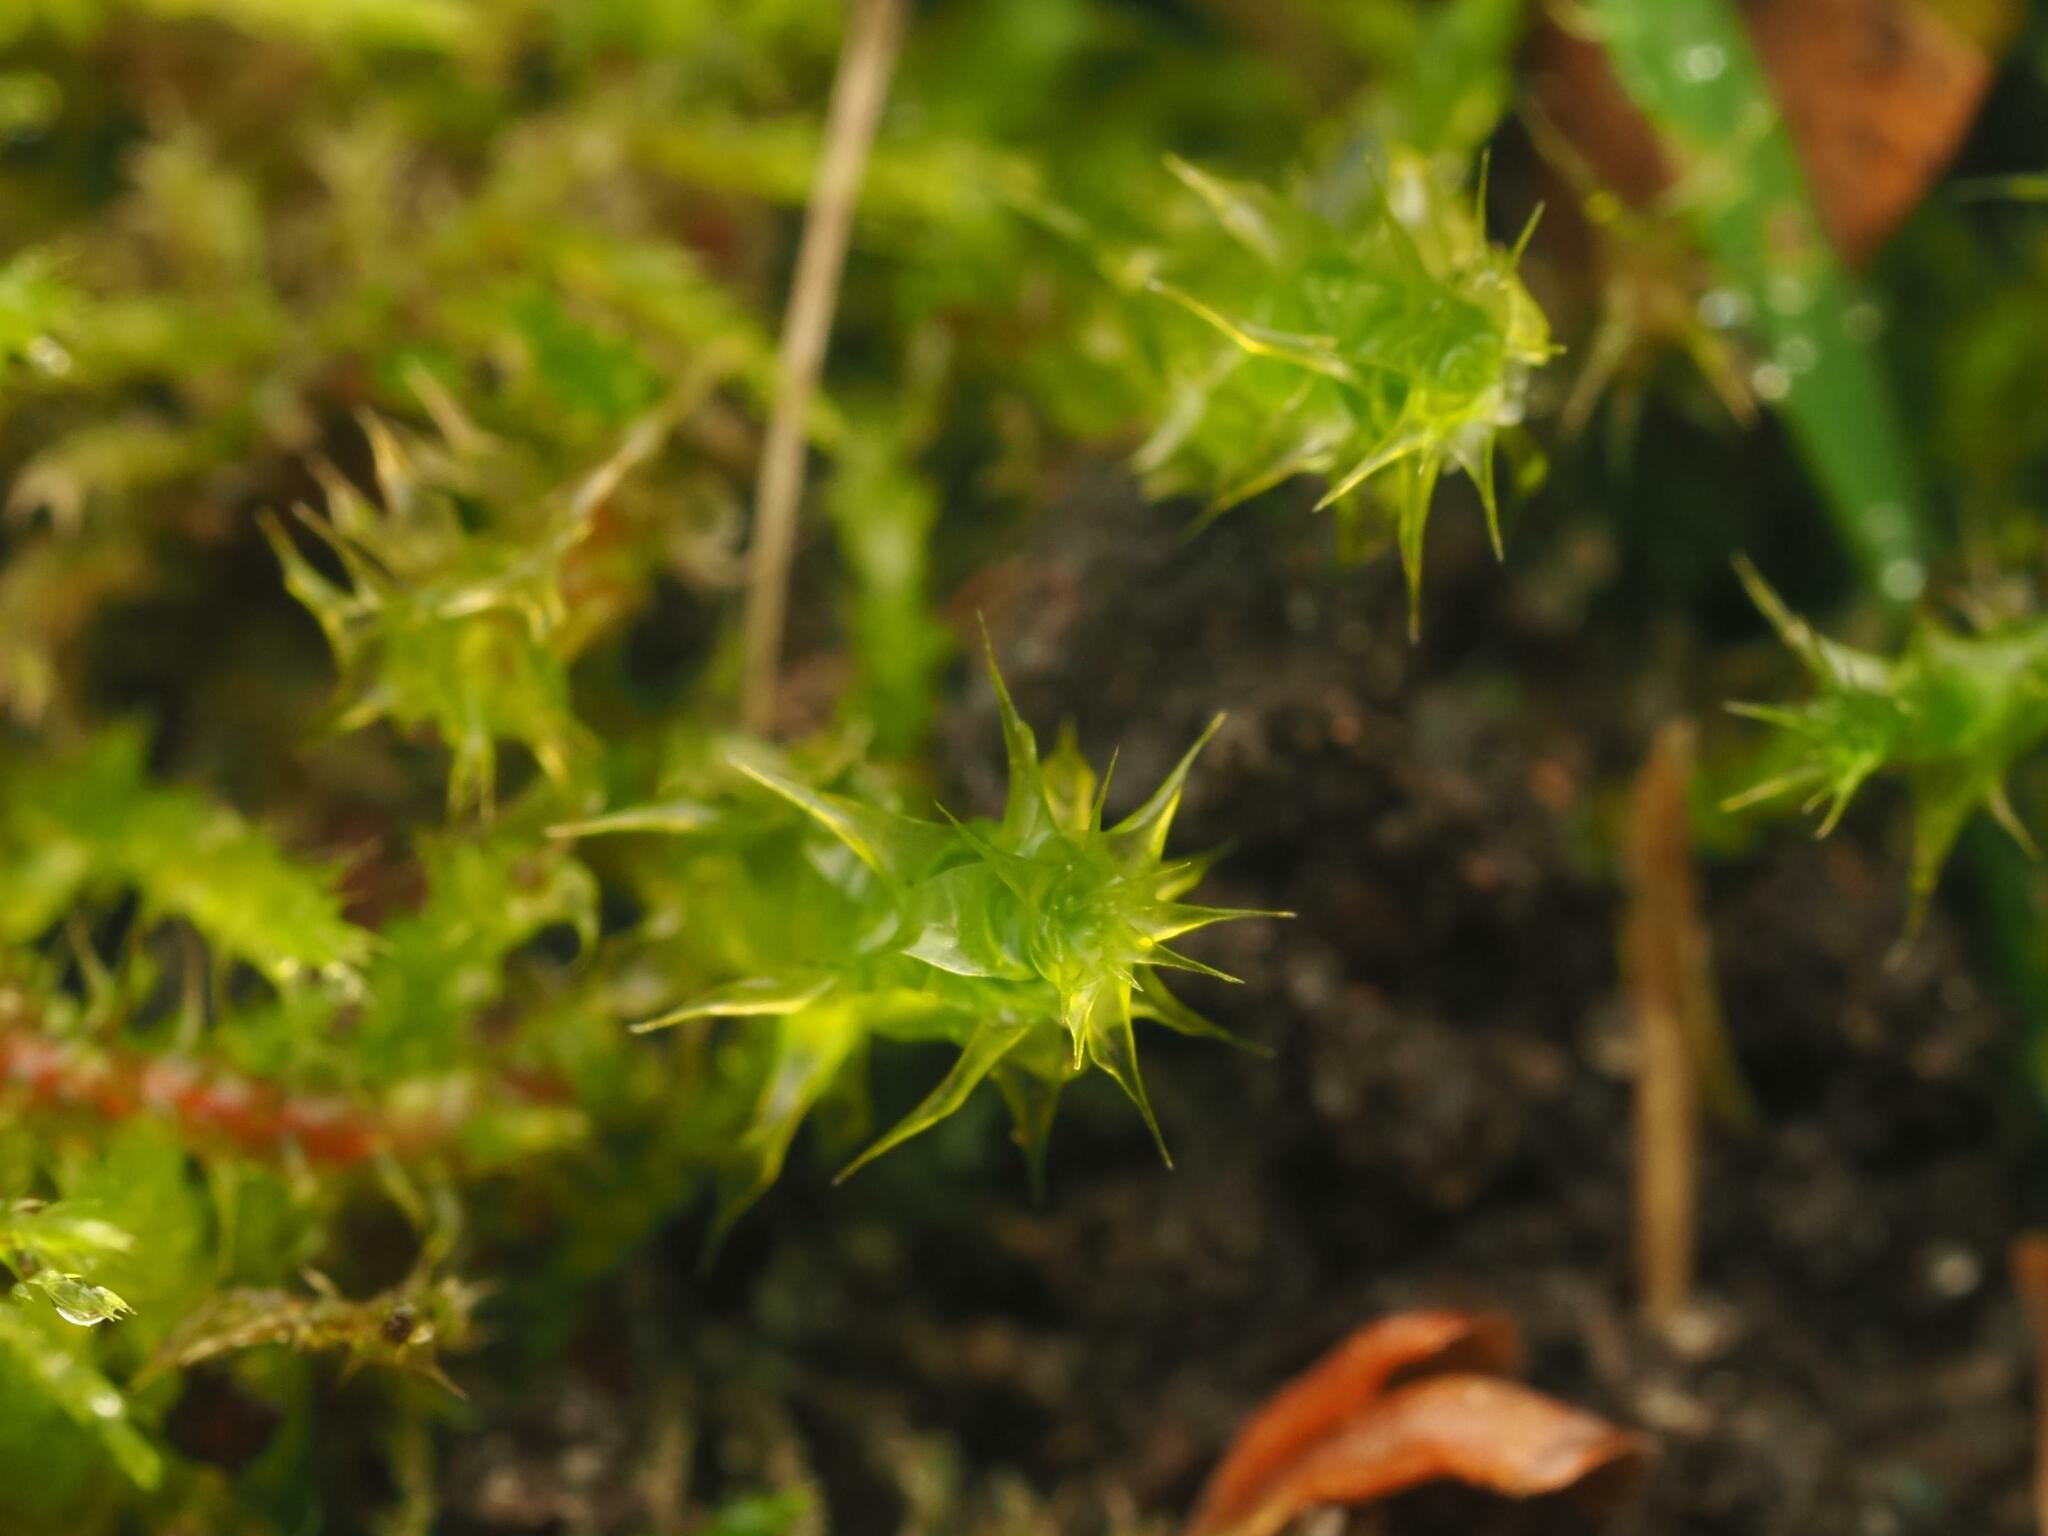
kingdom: Plantae
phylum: Bryophyta
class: Bryopsida
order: Hypnales
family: Hylocomiaceae
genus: Rhytidiadelphus
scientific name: Rhytidiadelphus squarrosus
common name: Springy turf-moss
